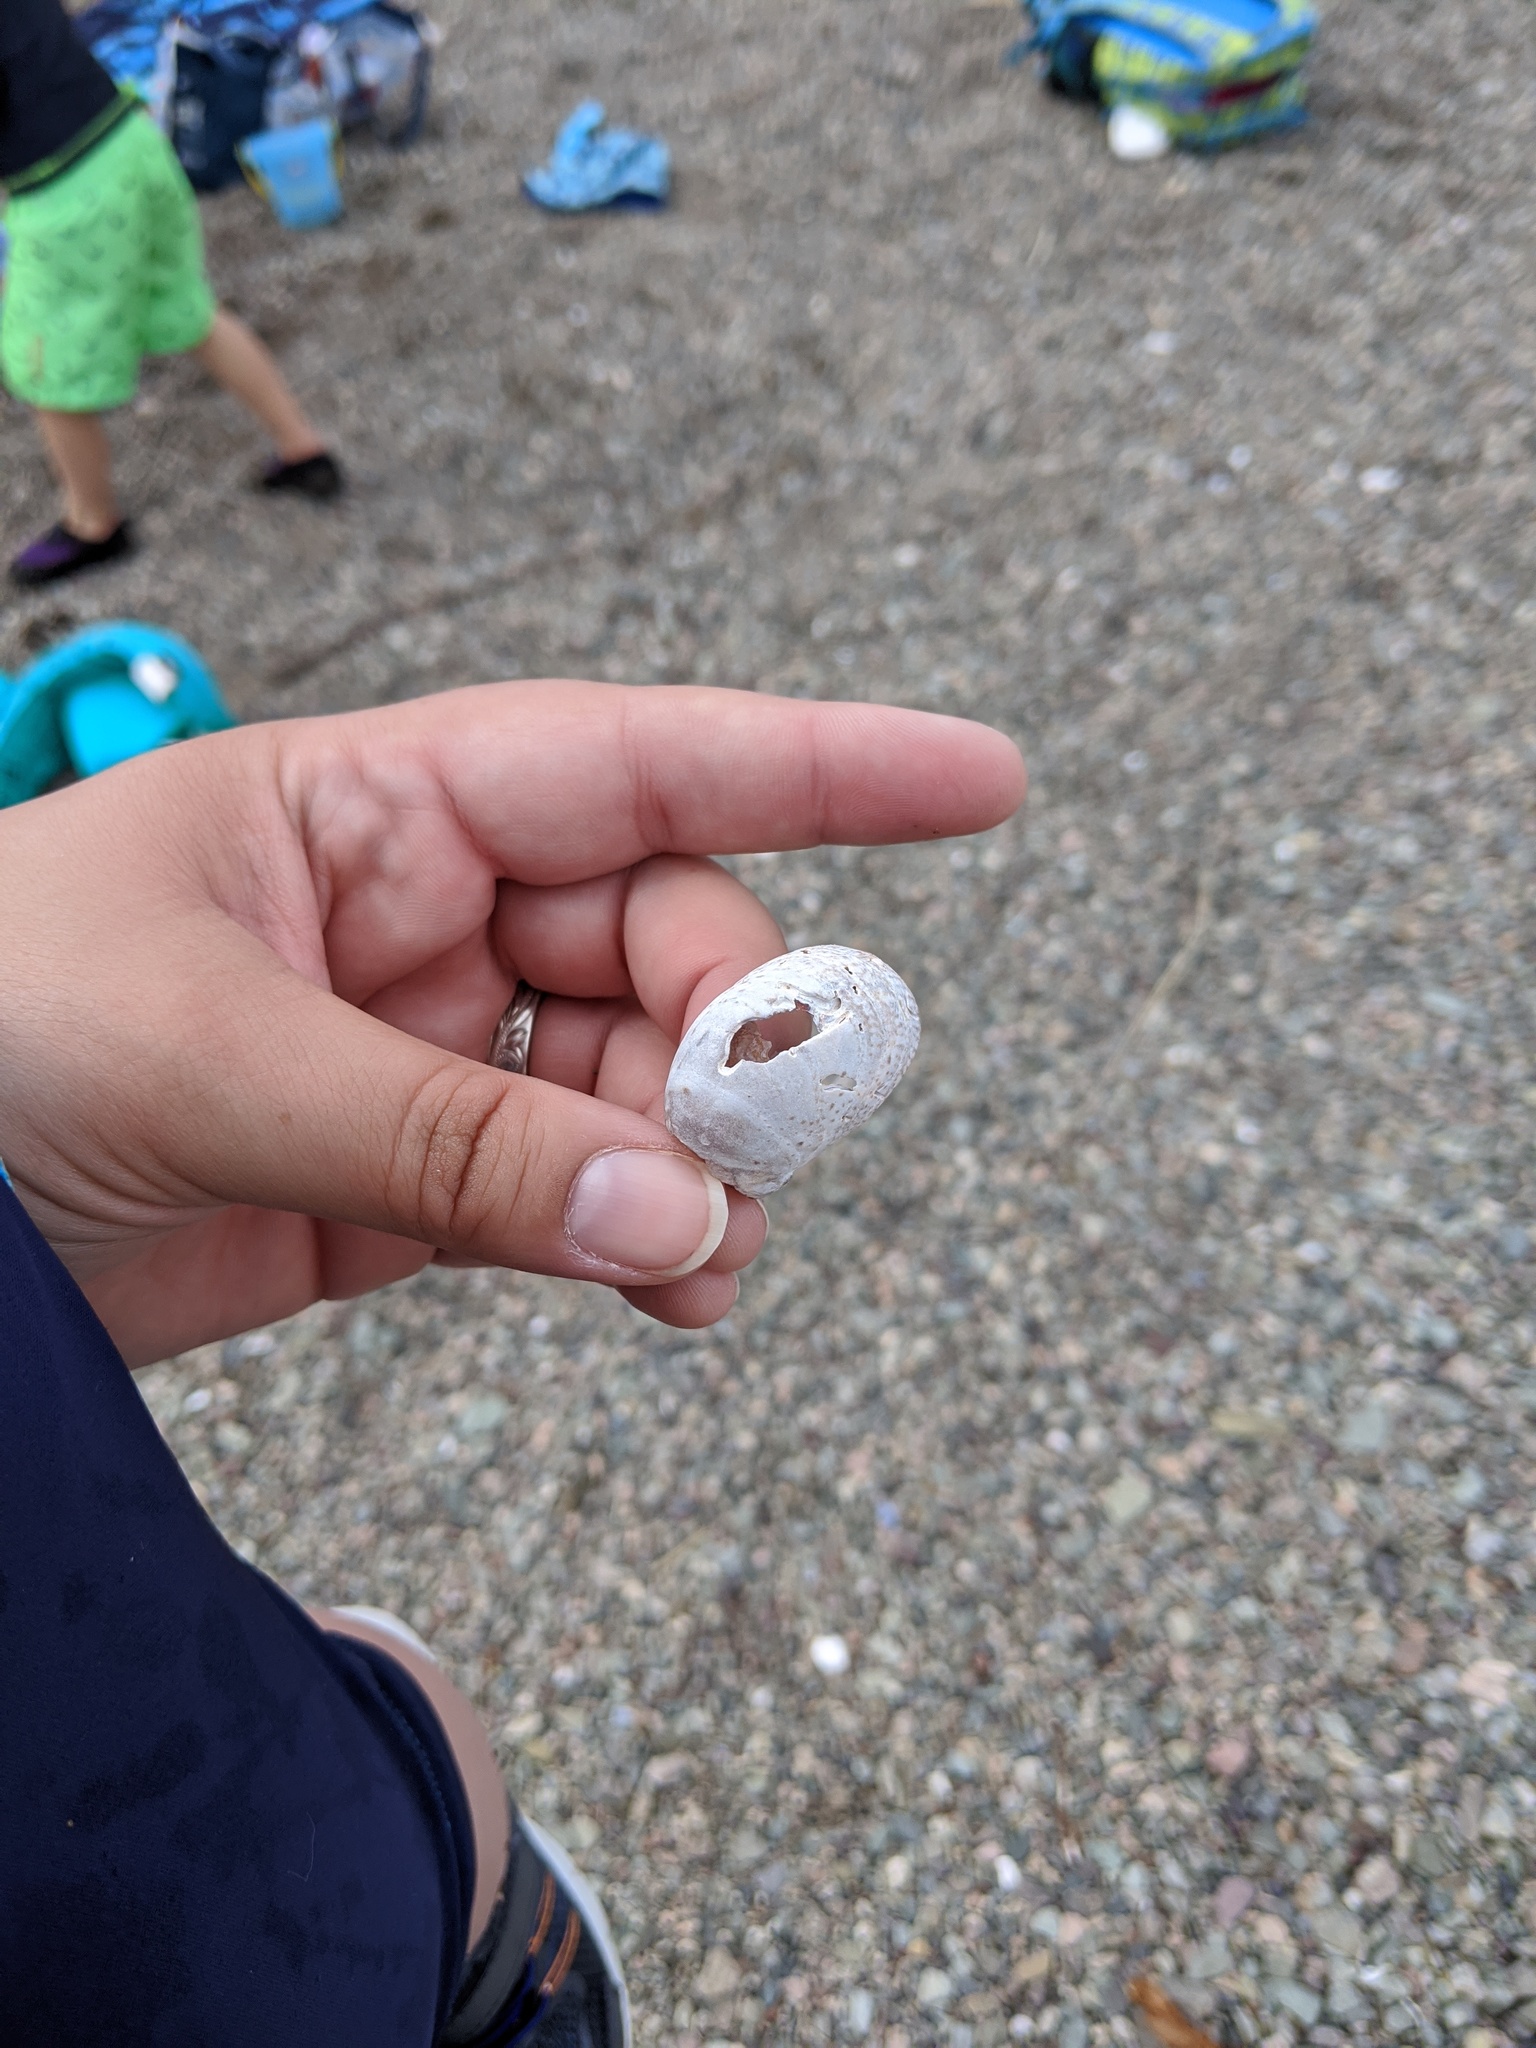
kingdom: Animalia
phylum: Mollusca
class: Gastropoda
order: Littorinimorpha
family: Calyptraeidae
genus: Crepidula
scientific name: Crepidula fornicata
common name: Slipper limpet
